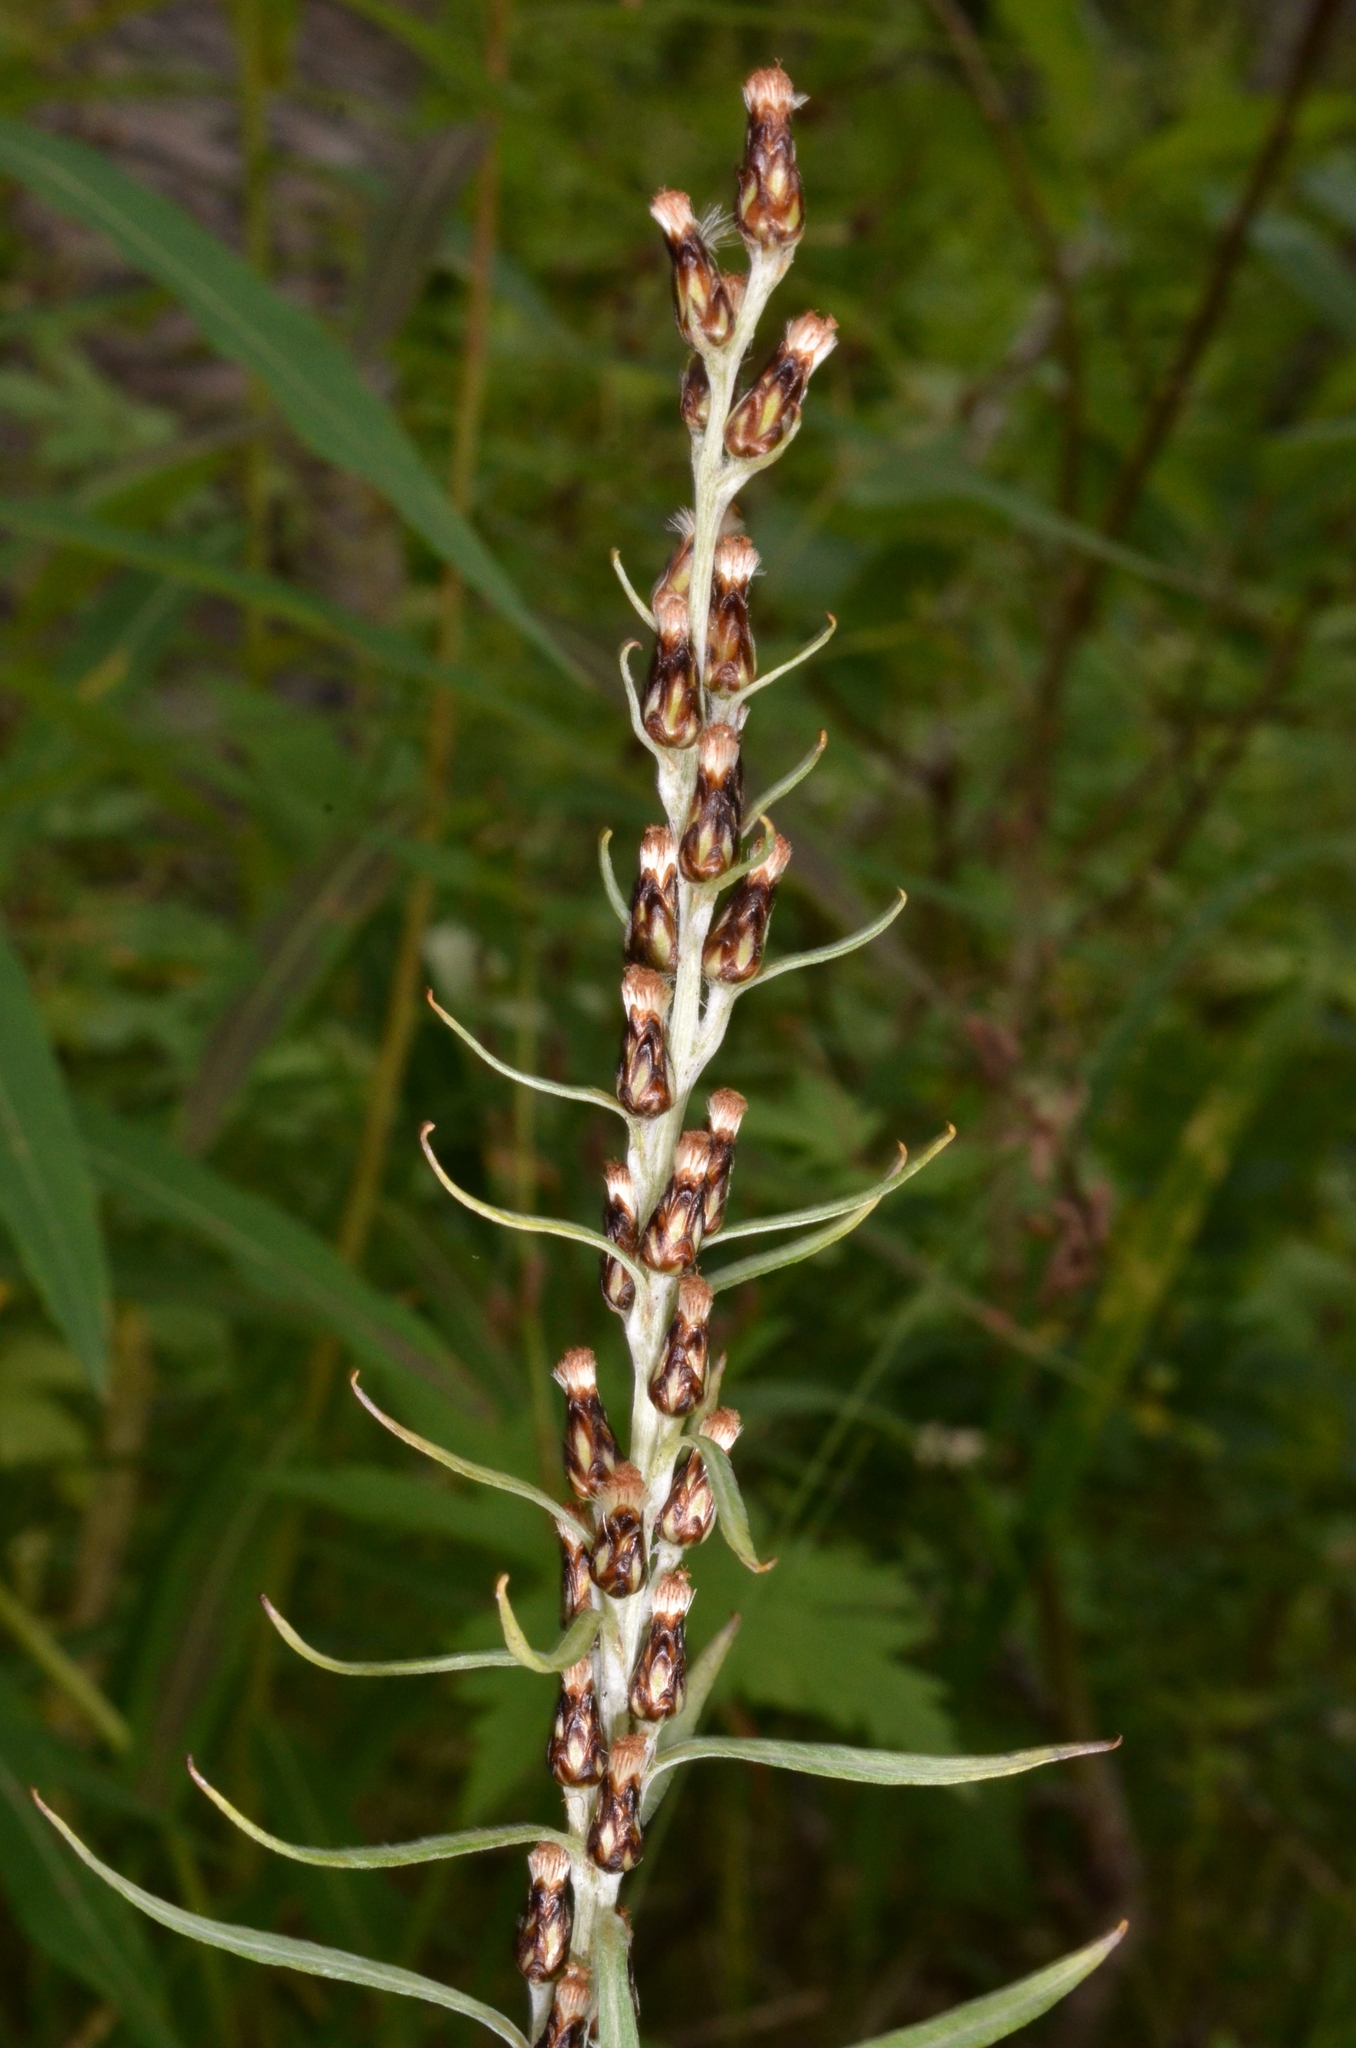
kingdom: Plantae
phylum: Tracheophyta
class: Magnoliopsida
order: Asterales
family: Asteraceae
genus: Omalotheca
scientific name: Omalotheca norvegica
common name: Norwegian arctic-cudweed
